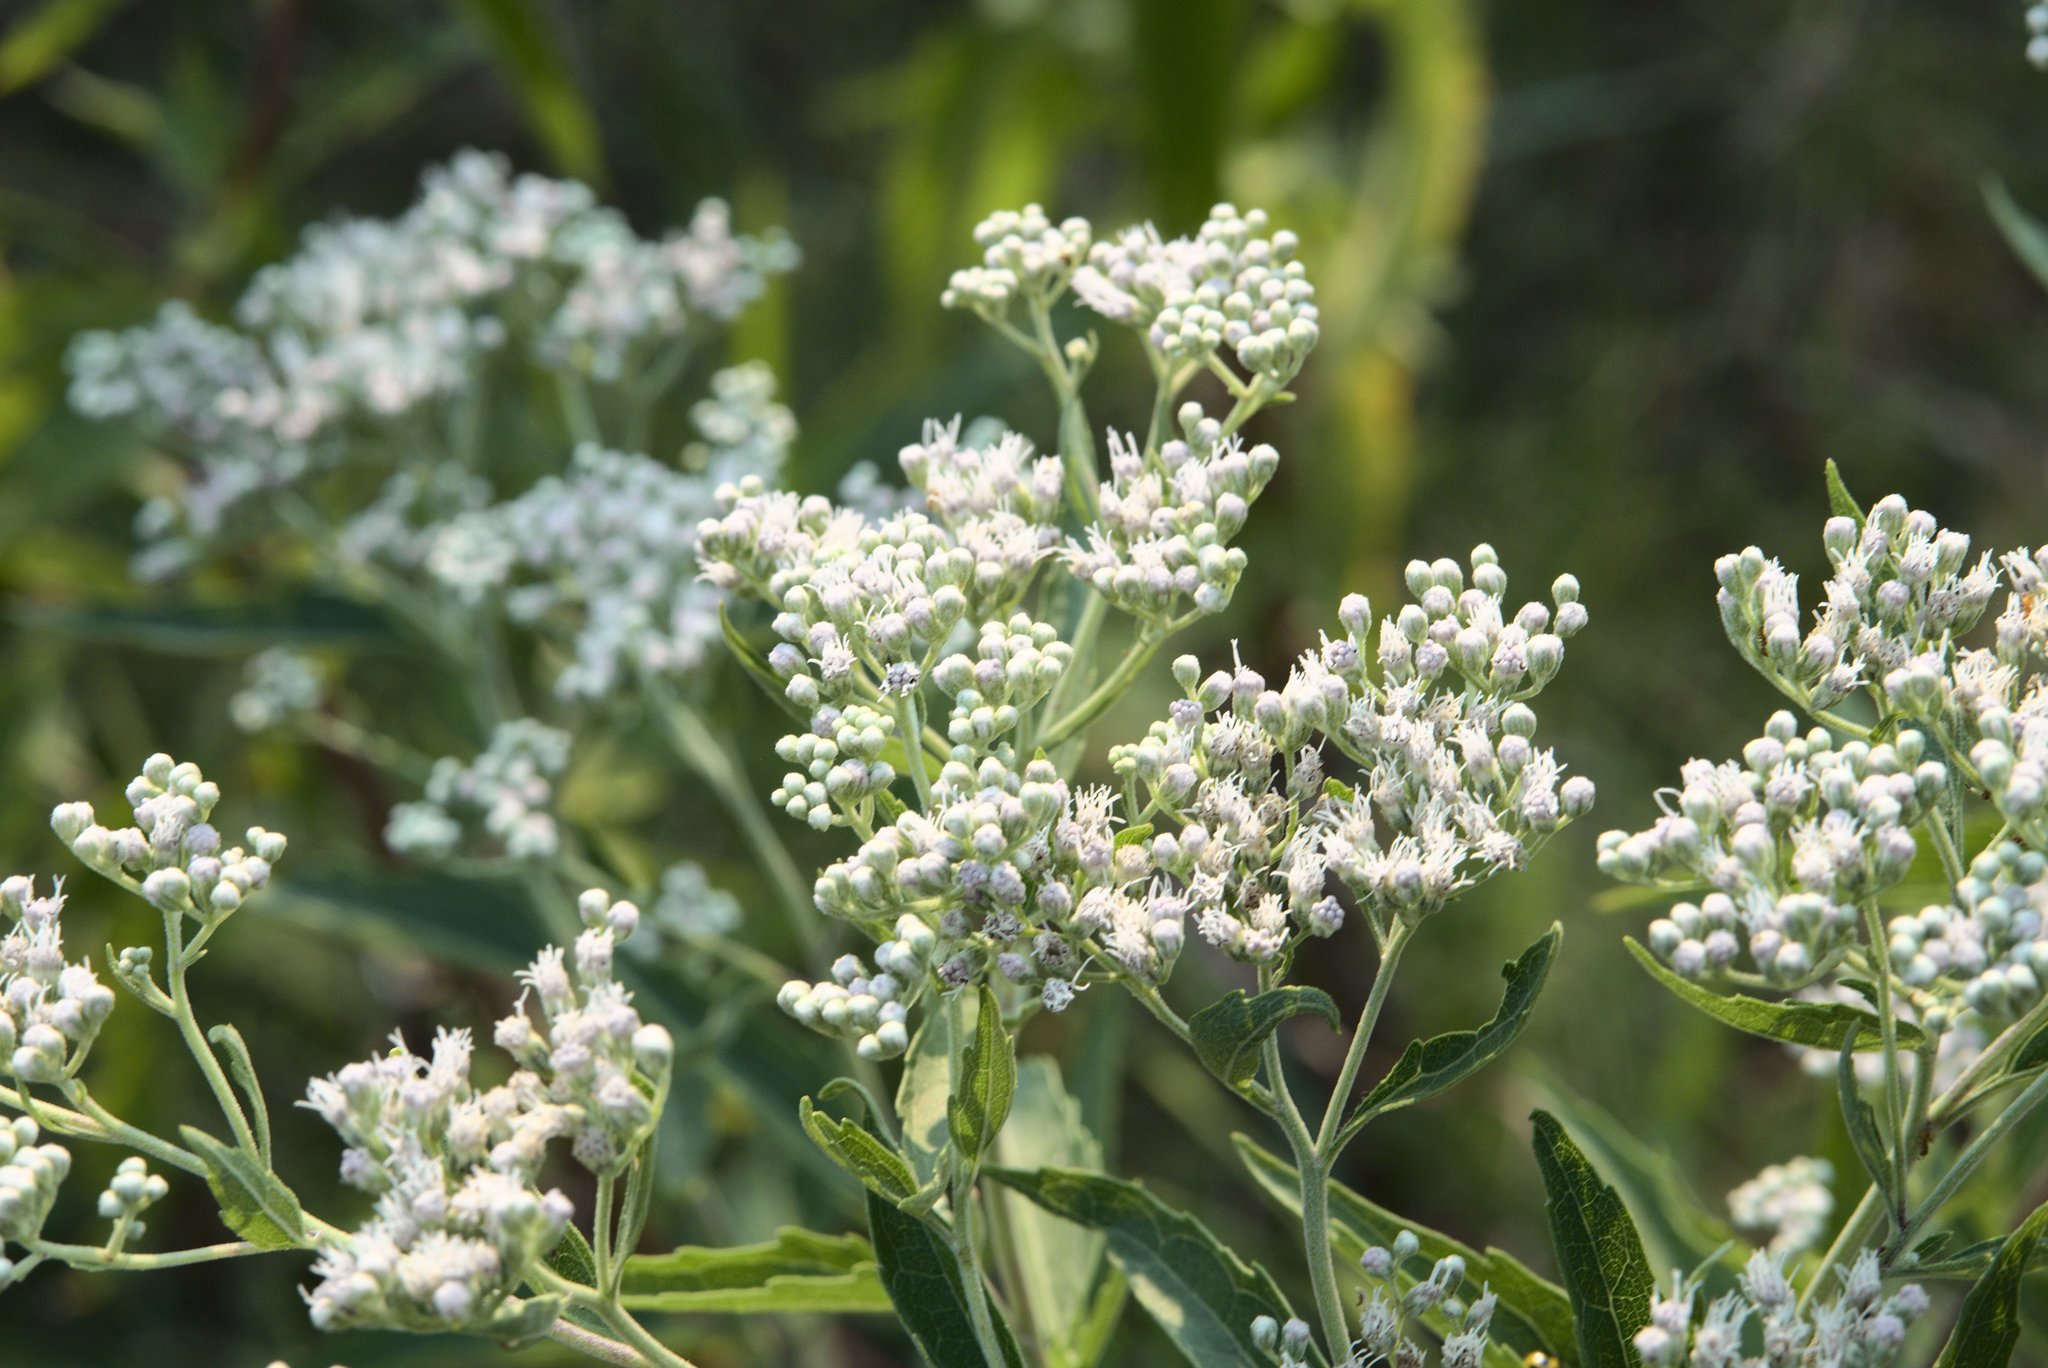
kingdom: Plantae
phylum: Tracheophyta
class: Magnoliopsida
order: Asterales
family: Asteraceae
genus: Eupatorium
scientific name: Eupatorium serotinum
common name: Late boneset
